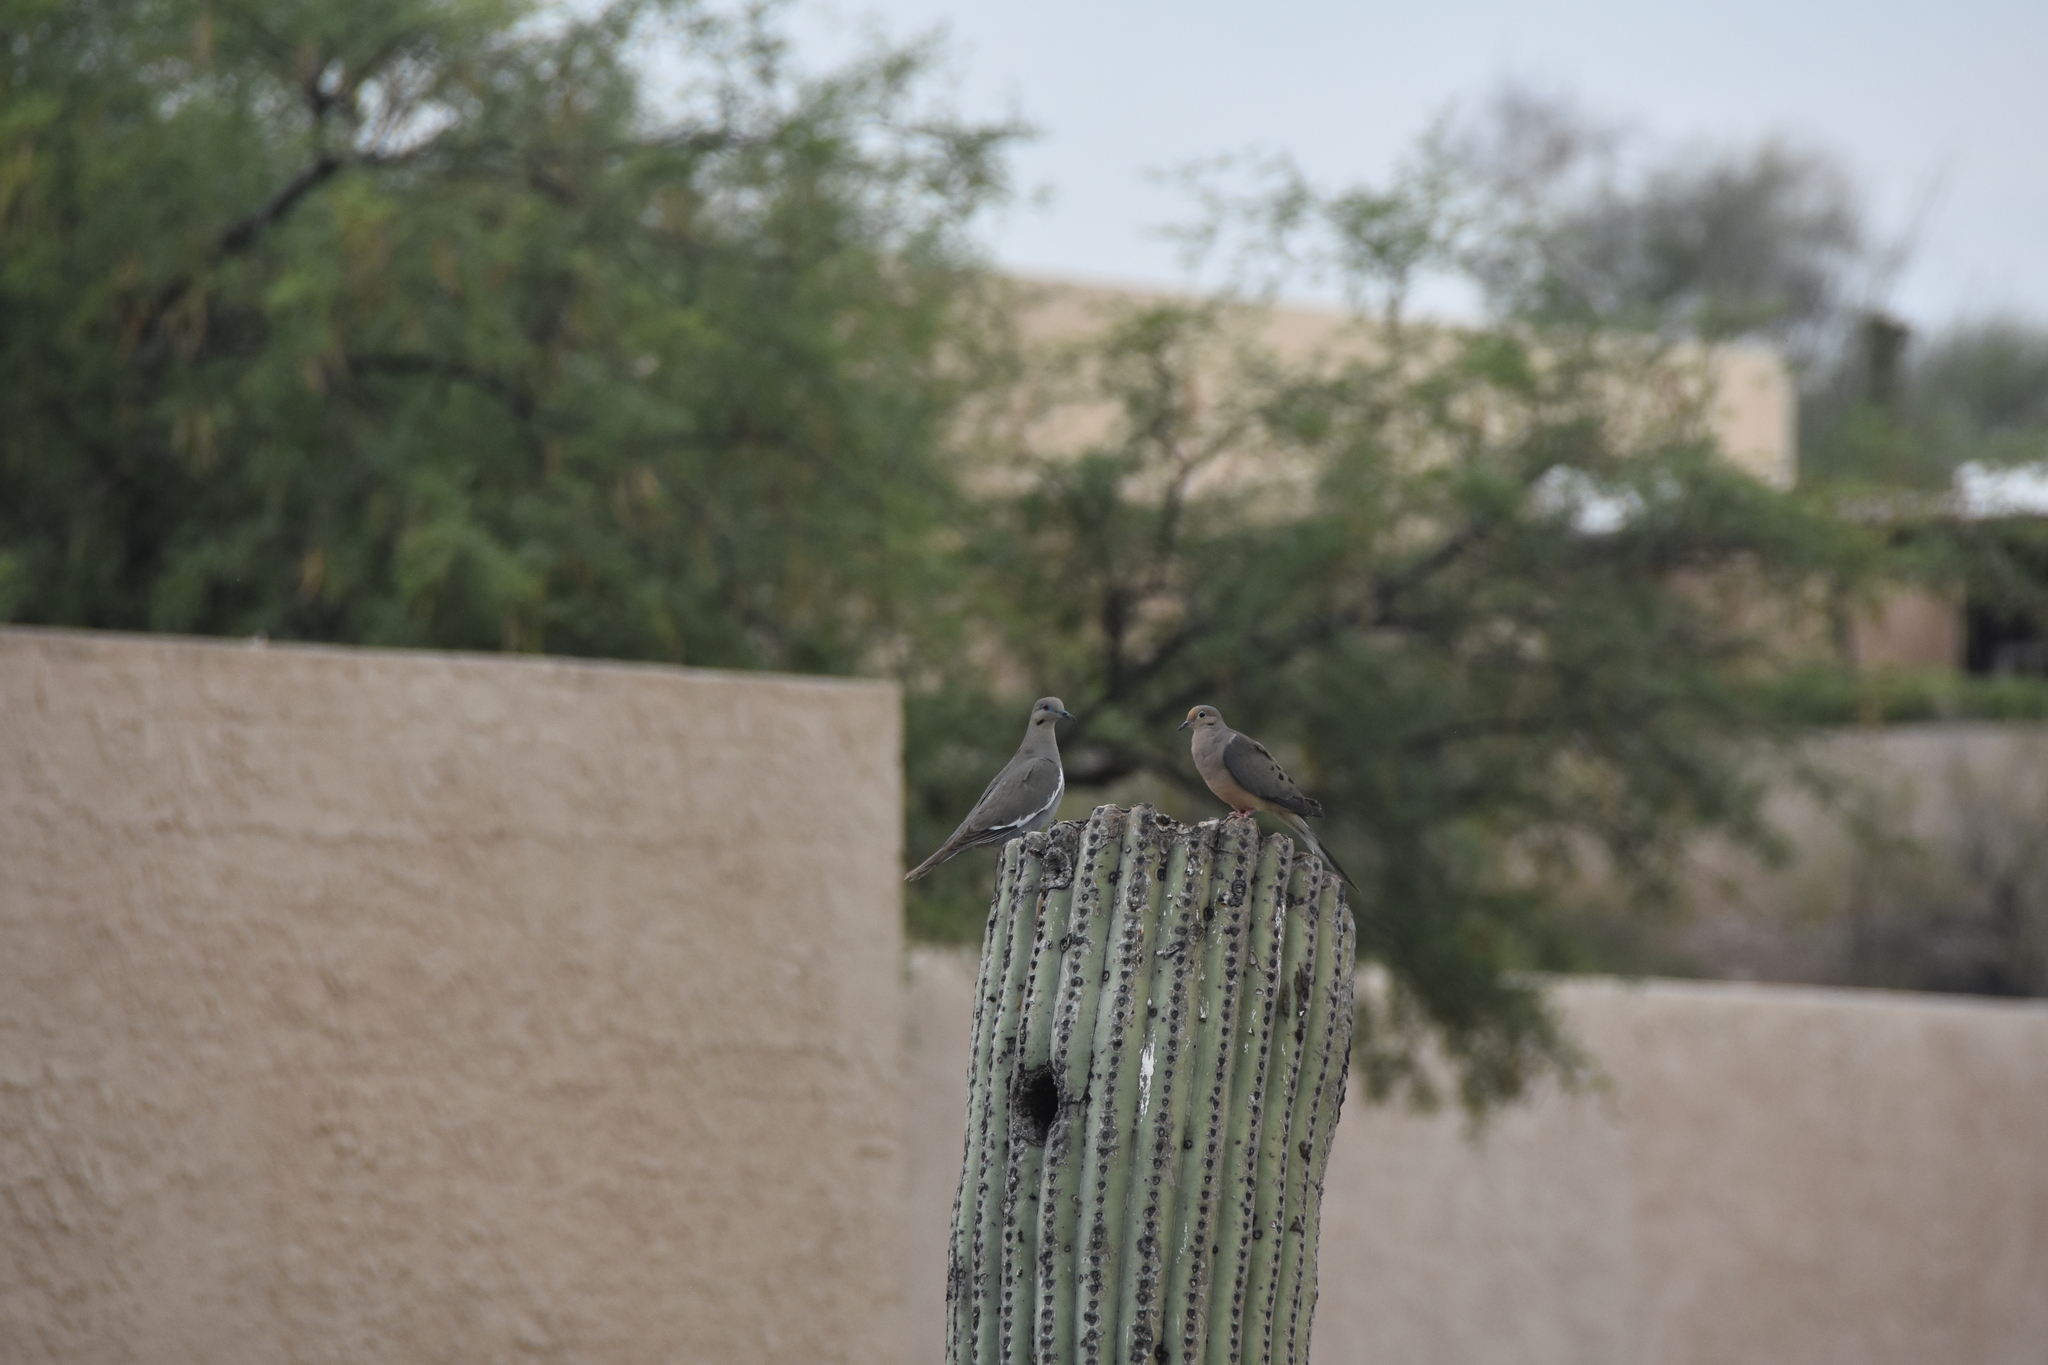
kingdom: Animalia
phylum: Chordata
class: Aves
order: Columbiformes
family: Columbidae
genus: Zenaida
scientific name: Zenaida asiatica
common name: White-winged dove
